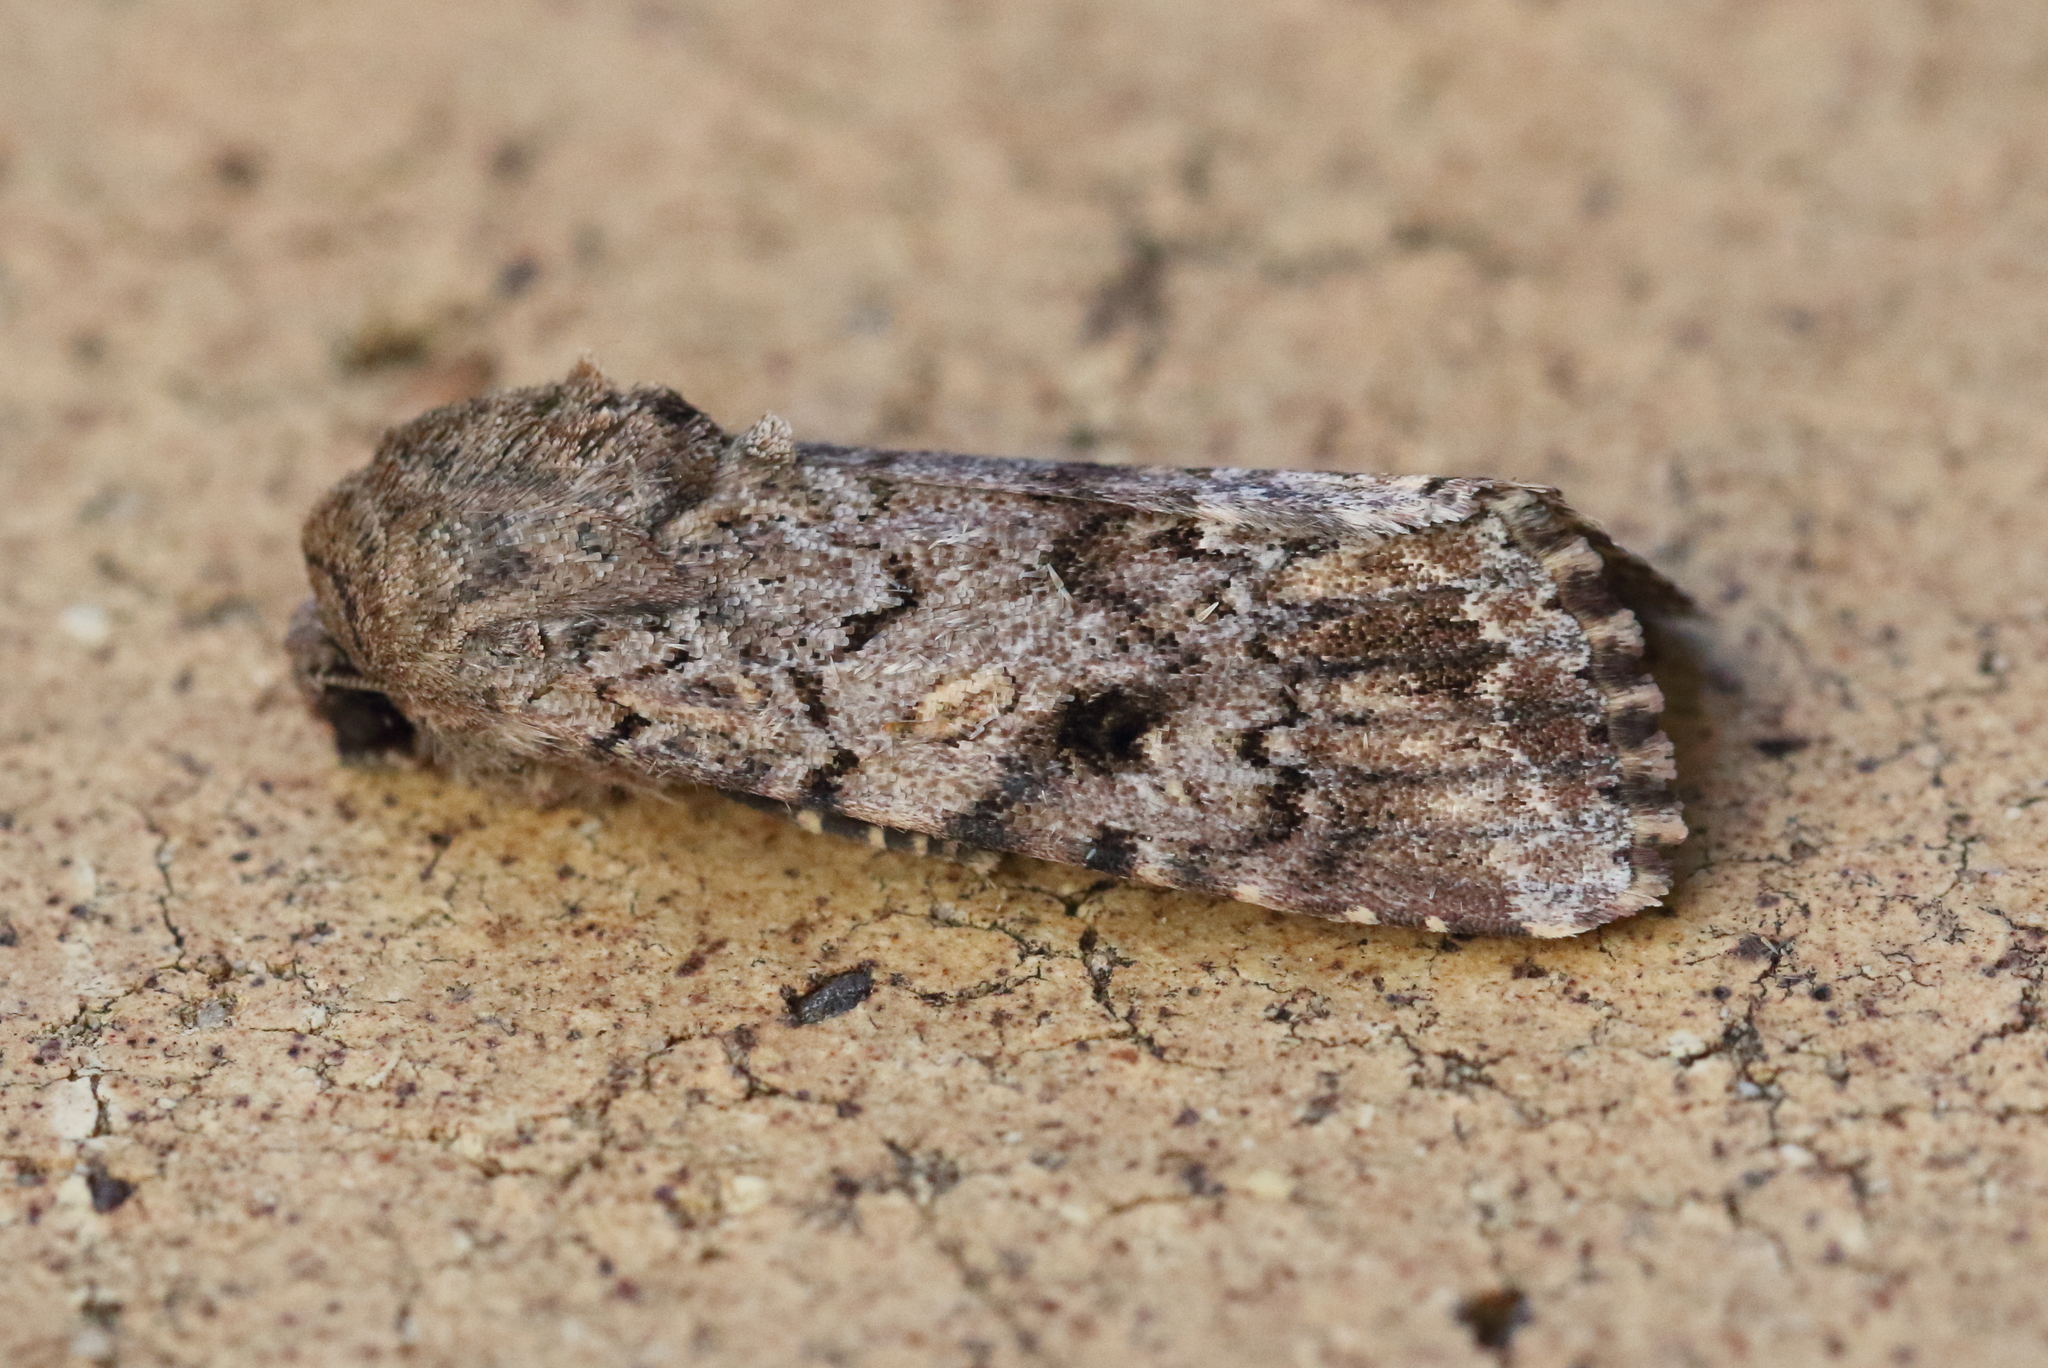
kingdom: Animalia
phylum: Arthropoda
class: Insecta
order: Lepidoptera
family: Noctuidae
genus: Spodoptera
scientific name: Spodoptera mauritia
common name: Lawn armyworm
